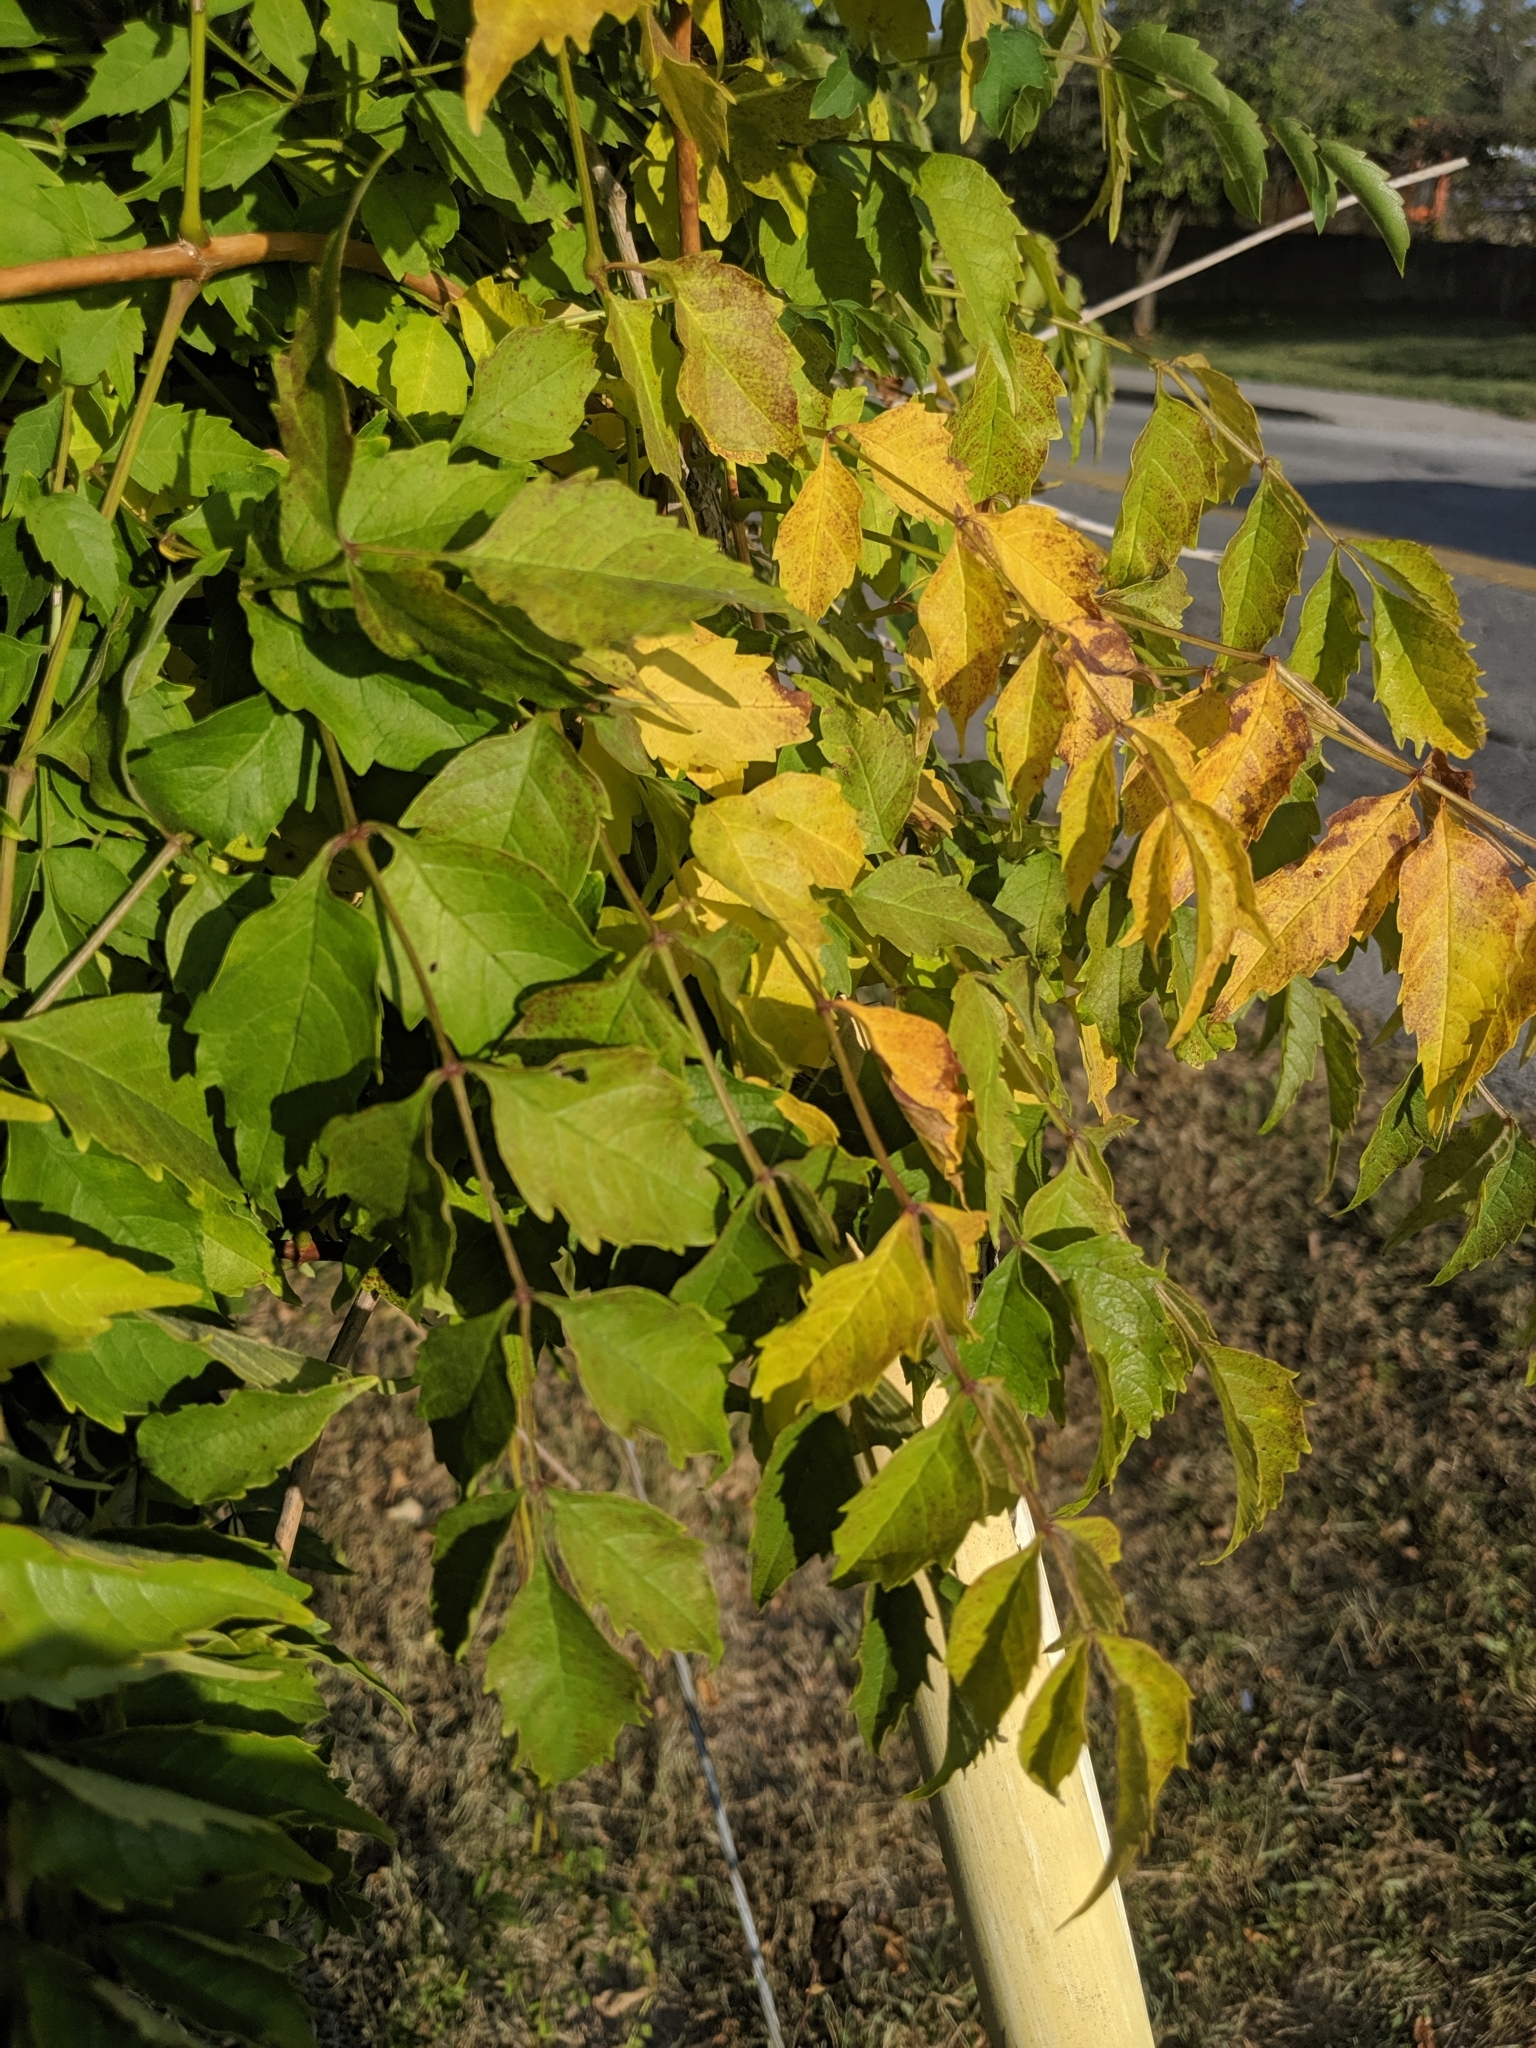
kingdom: Plantae
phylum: Tracheophyta
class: Magnoliopsida
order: Lamiales
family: Bignoniaceae
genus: Campsis
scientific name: Campsis radicans
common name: Trumpet-creeper
